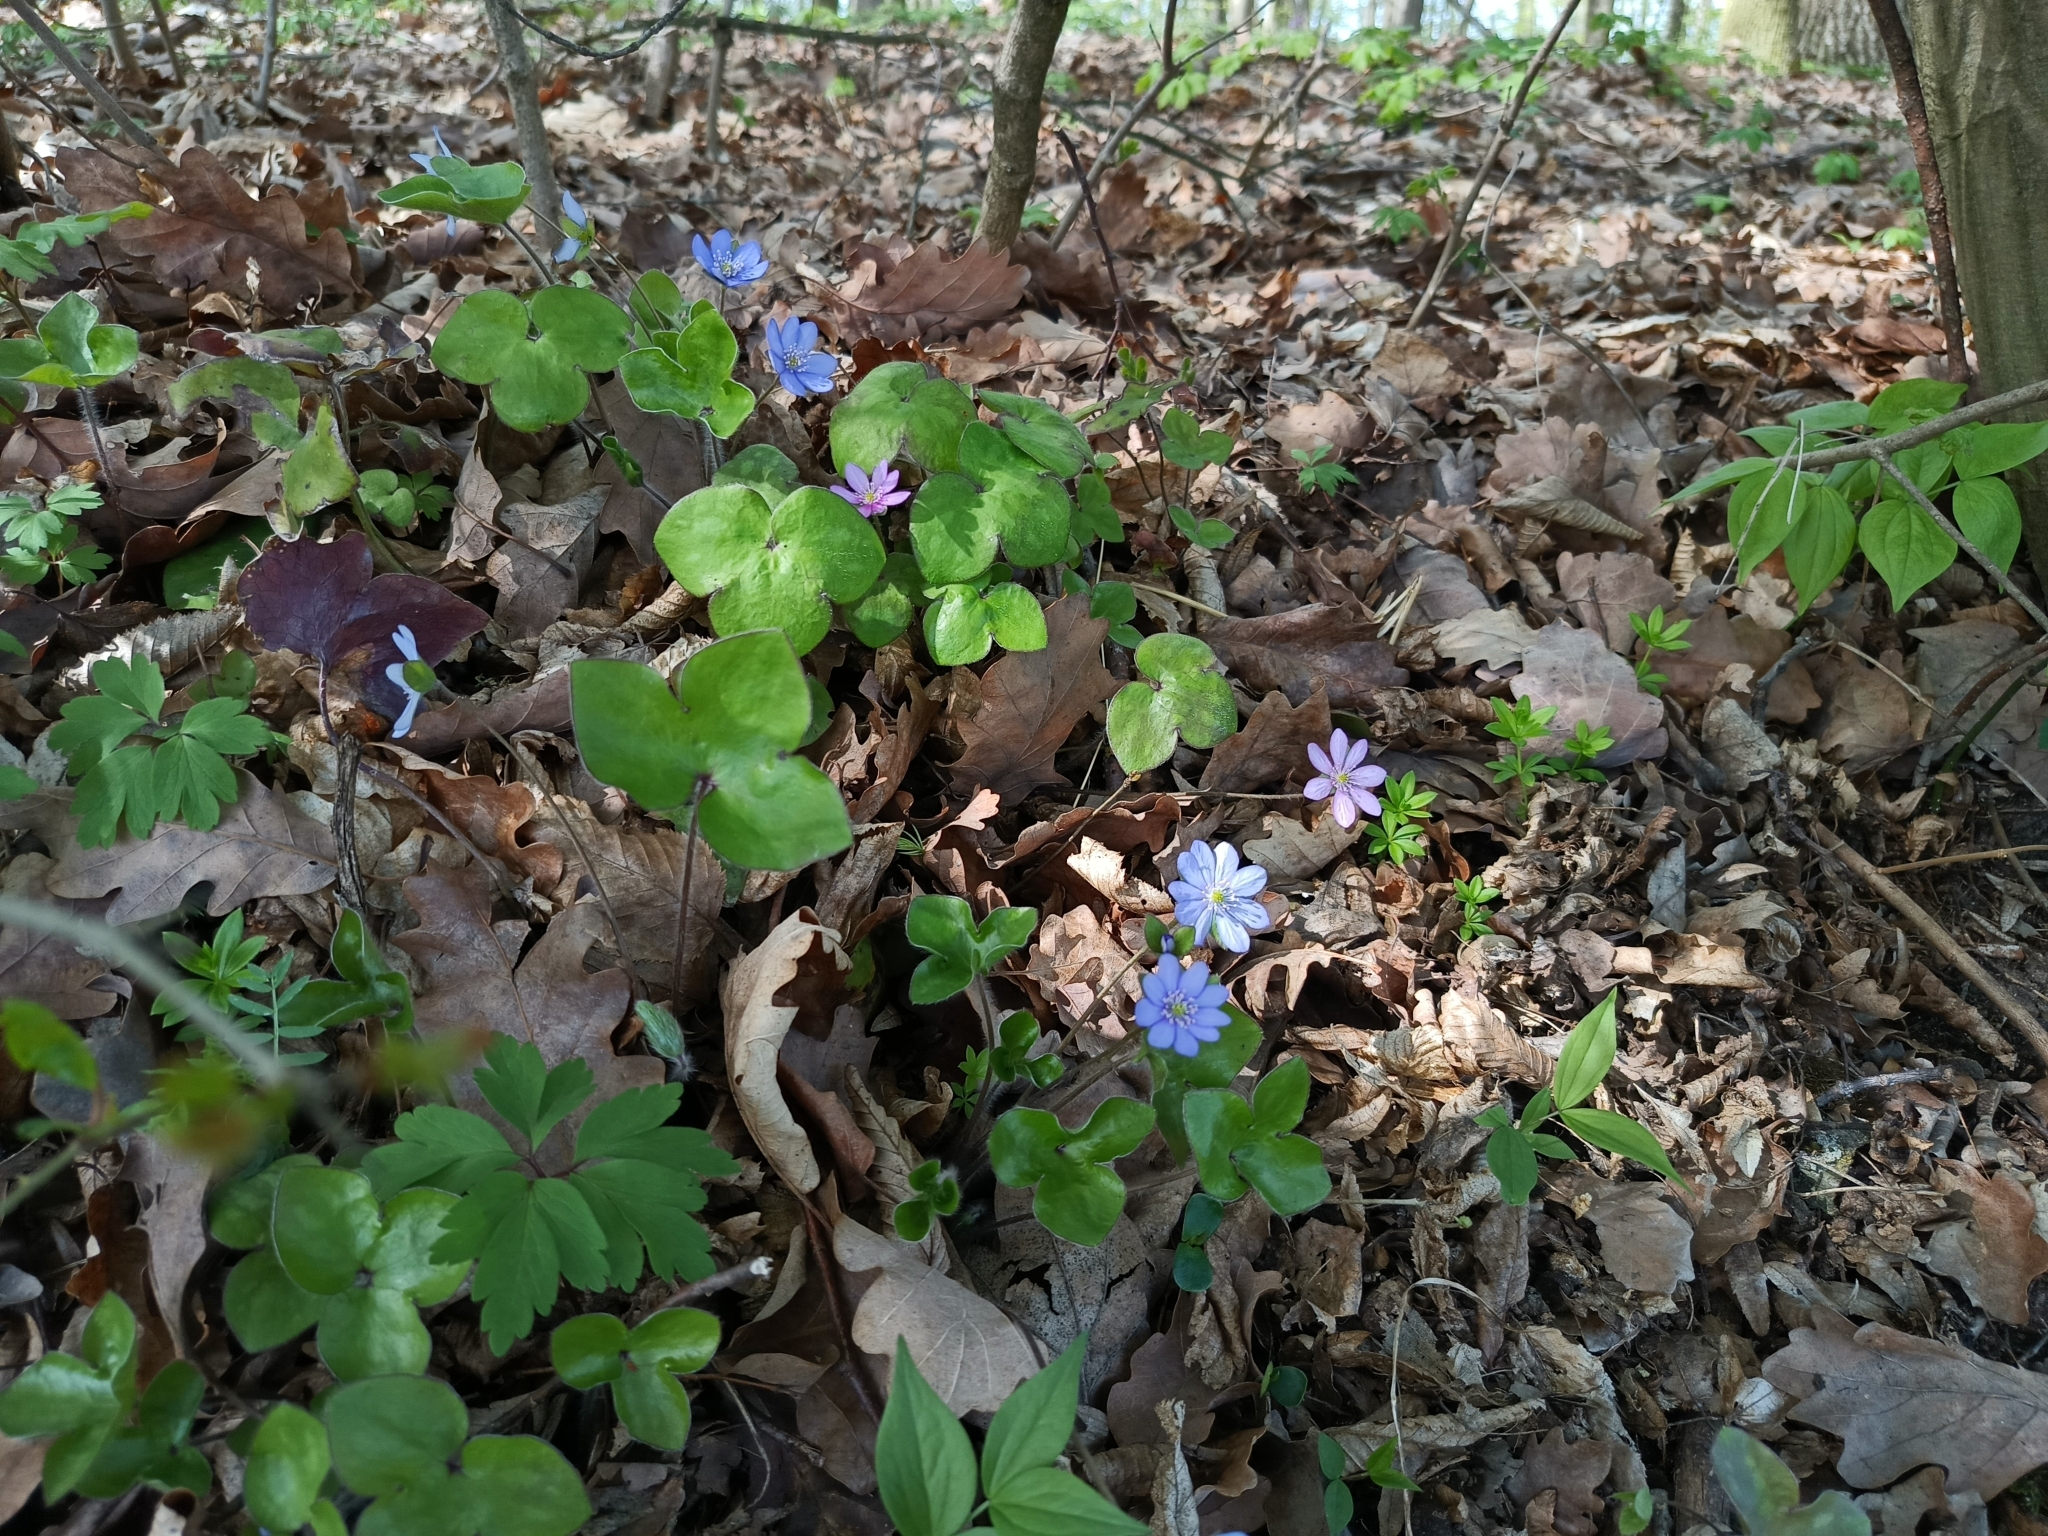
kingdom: Plantae
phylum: Tracheophyta
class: Magnoliopsida
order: Ranunculales
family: Ranunculaceae
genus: Hepatica
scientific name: Hepatica nobilis
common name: Liverleaf
